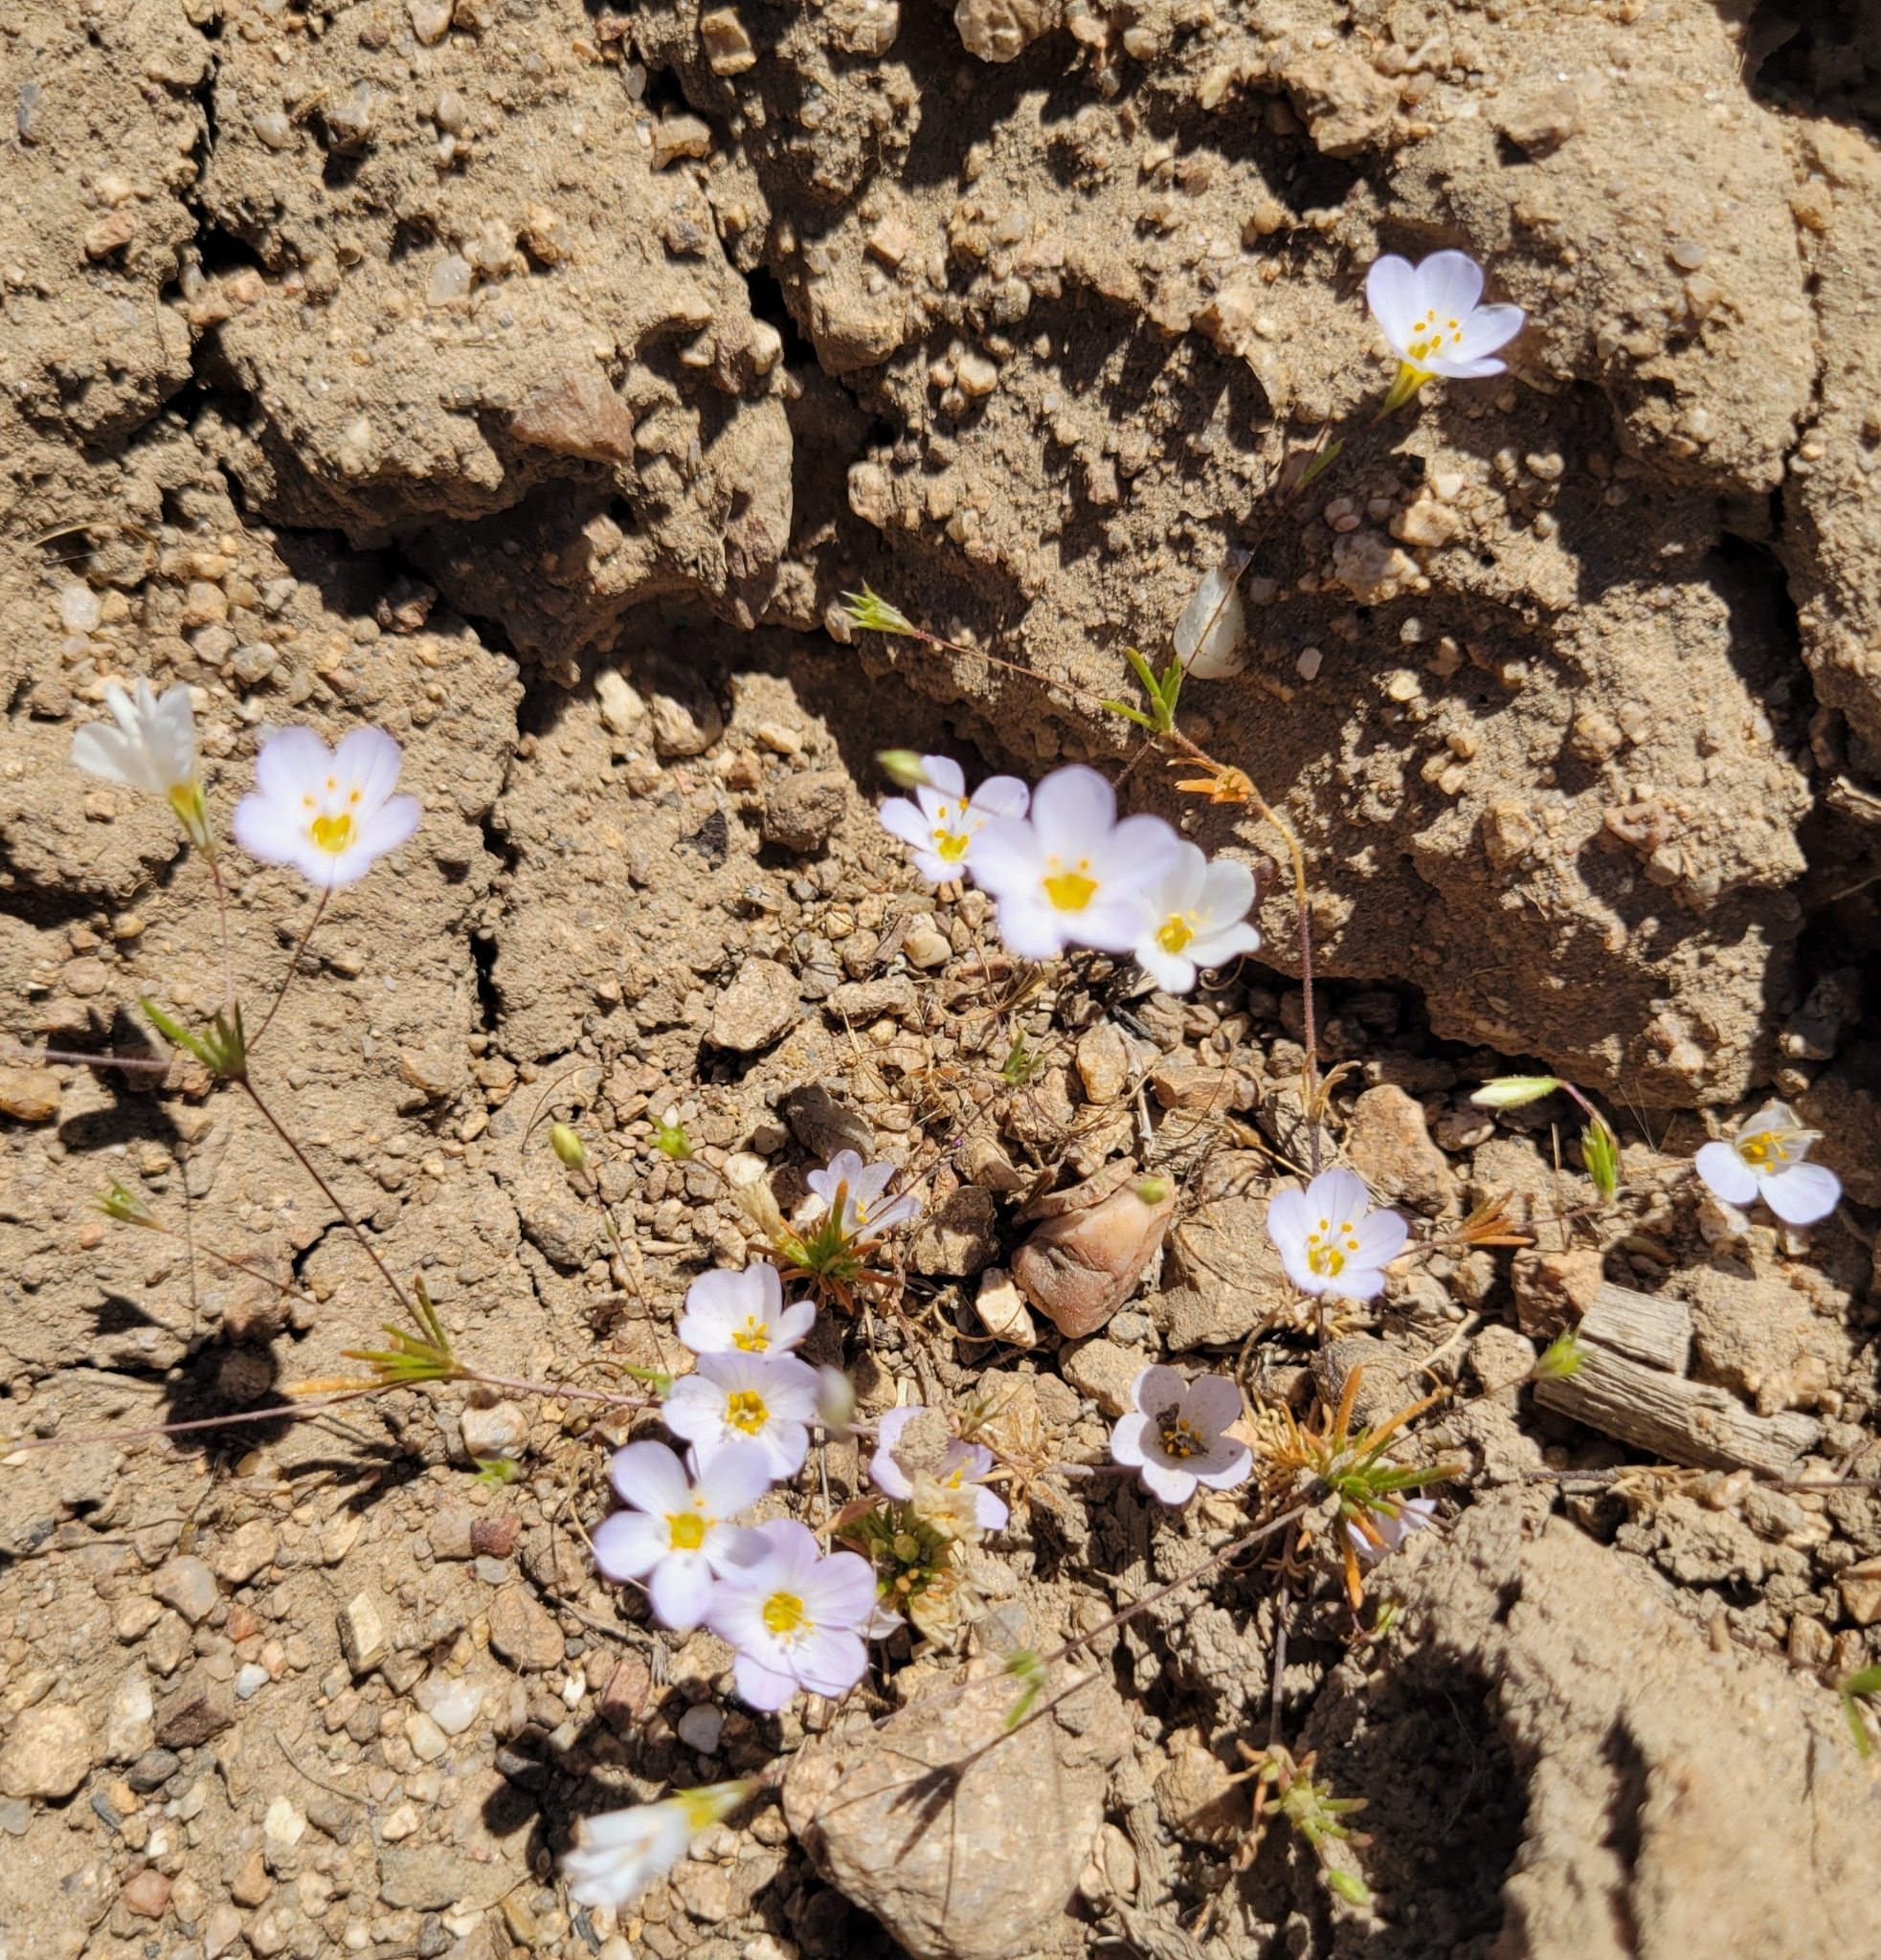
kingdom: Plantae
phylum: Tracheophyta
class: Magnoliopsida
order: Ericales
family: Polemoniaceae
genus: Leptosiphon
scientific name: Leptosiphon liniflorus
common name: Narrowflower flaxflower
